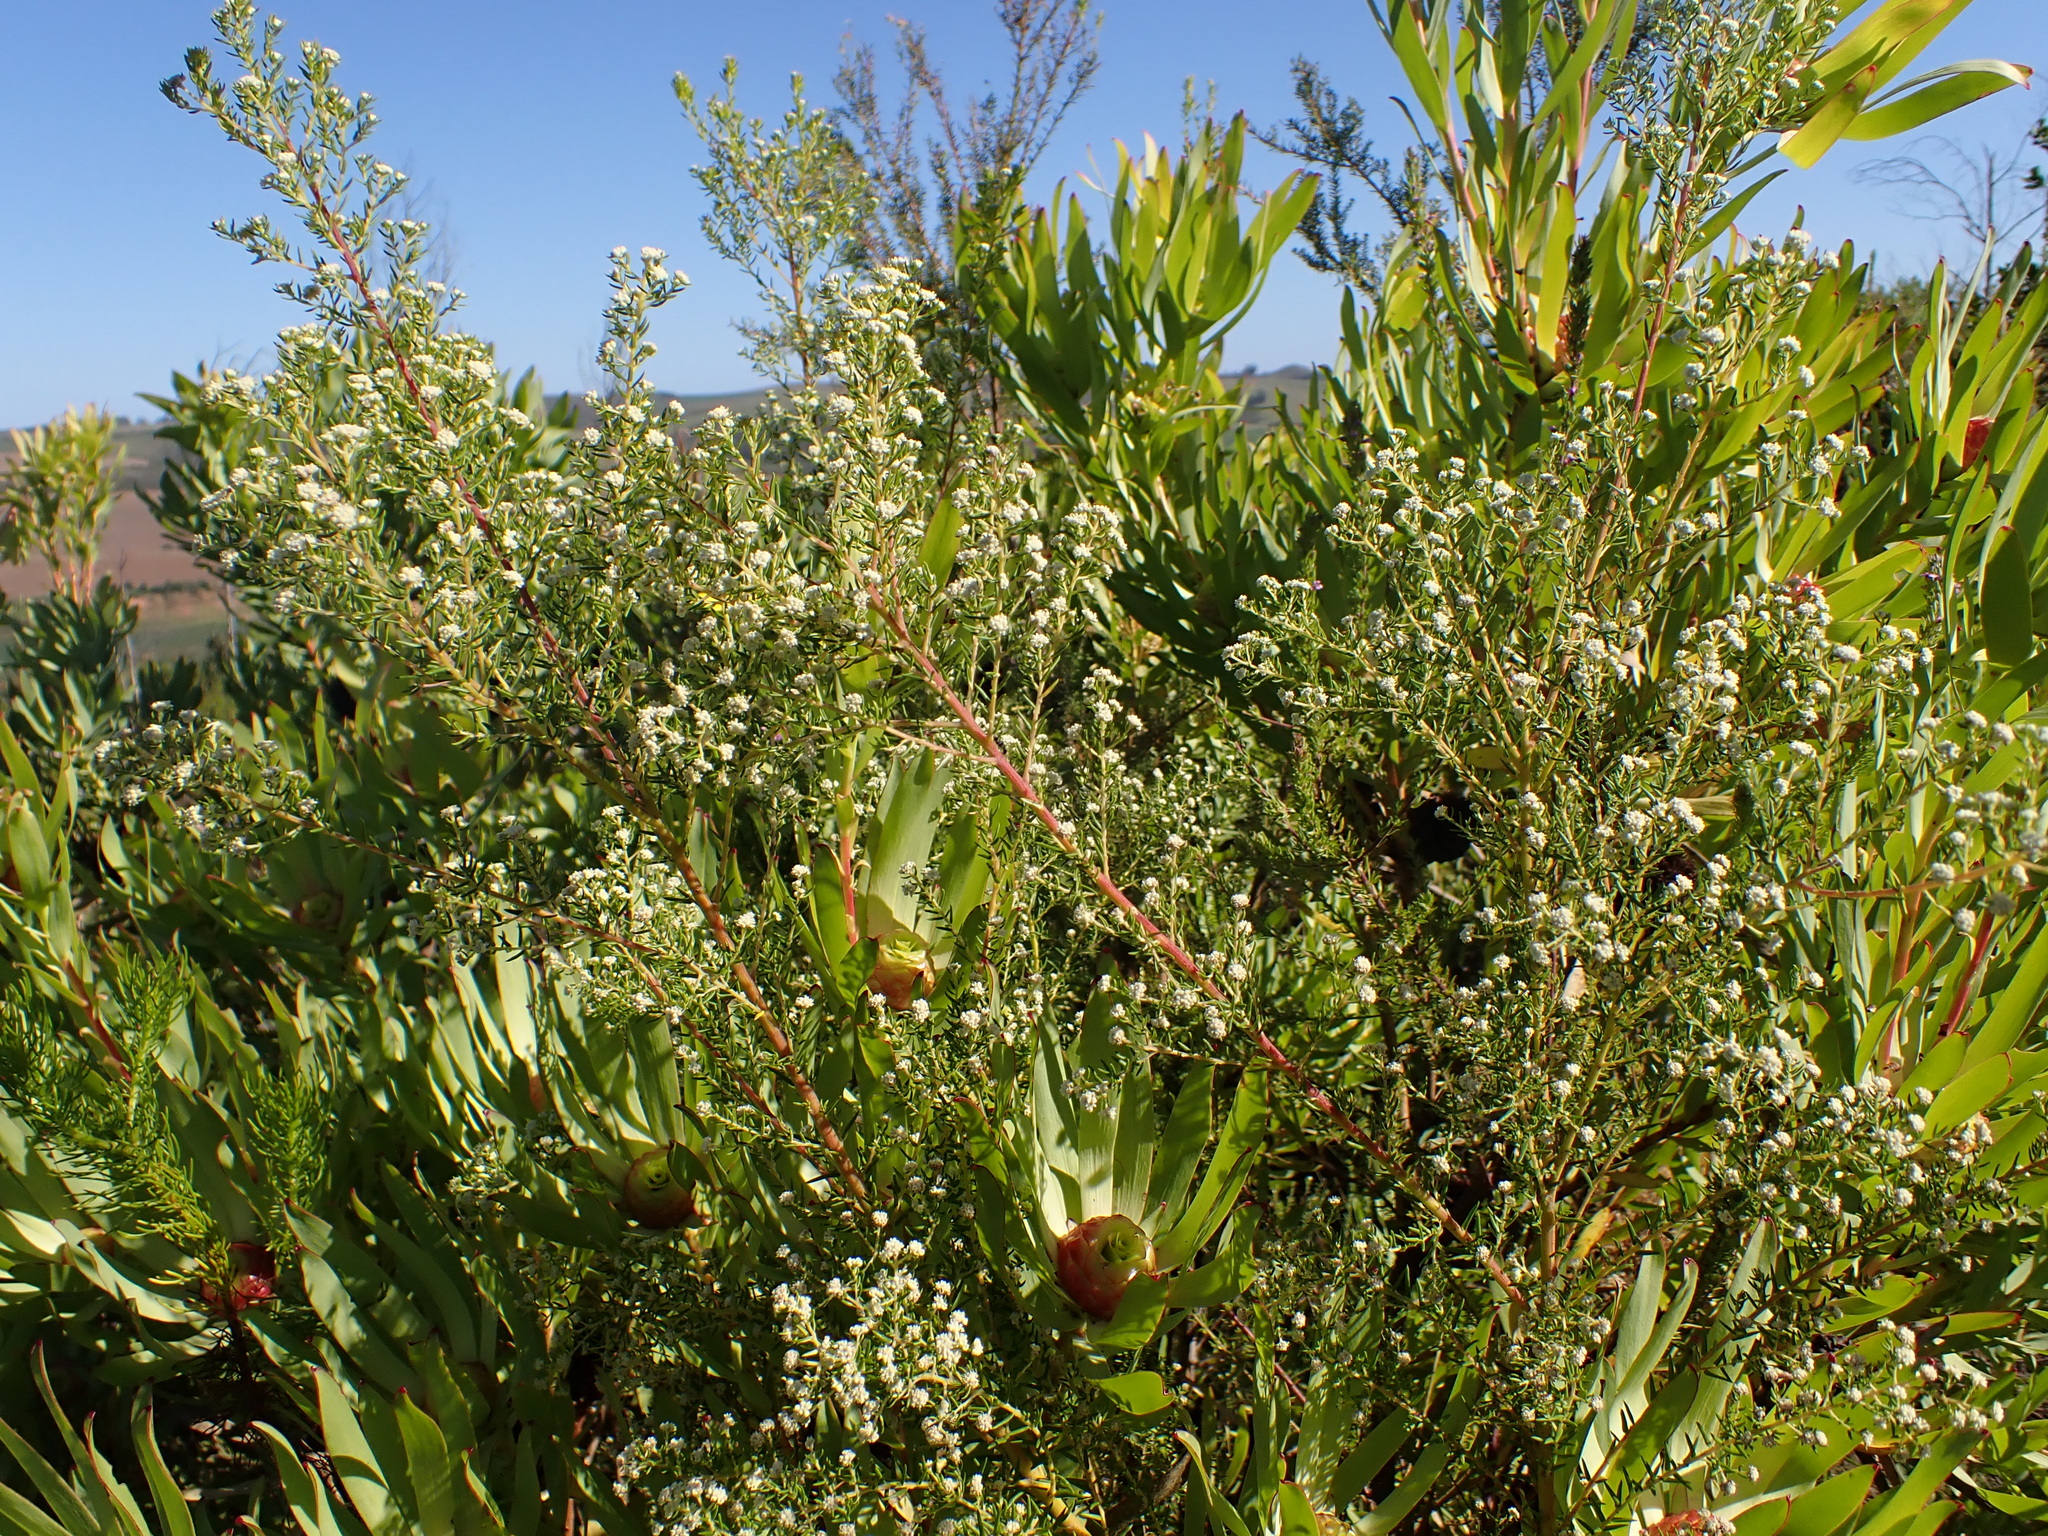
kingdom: Plantae
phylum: Tracheophyta
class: Magnoliopsida
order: Rosales
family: Rhamnaceae
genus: Phylica
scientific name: Phylica axillaris
